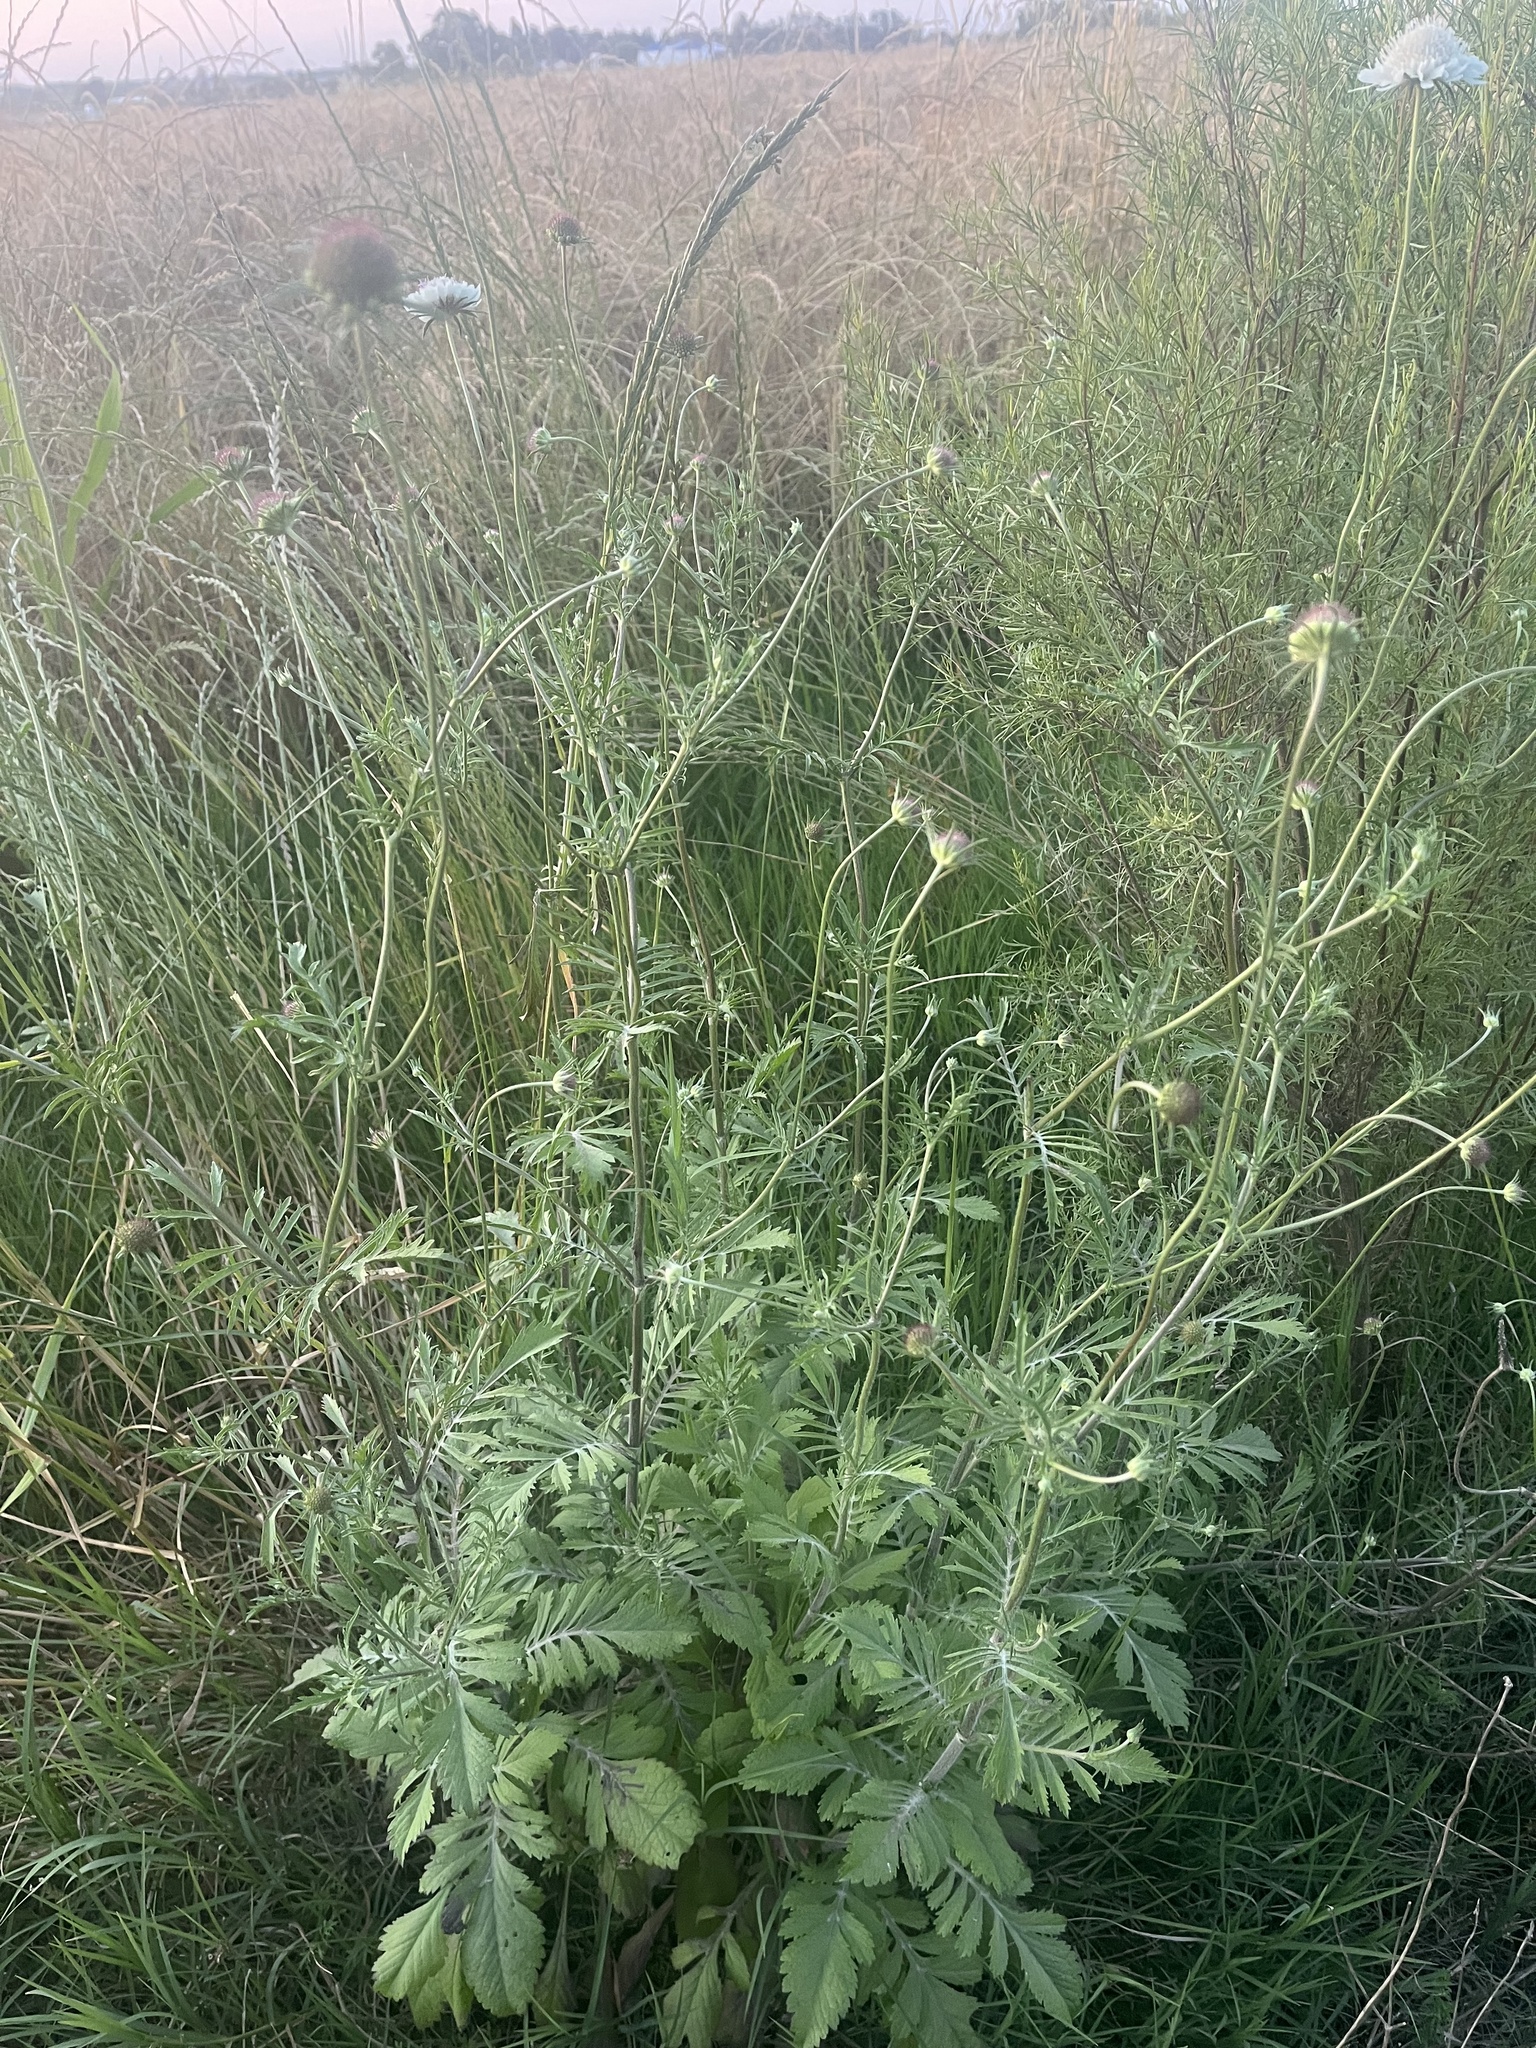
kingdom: Plantae
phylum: Tracheophyta
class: Magnoliopsida
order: Dipsacales
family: Caprifoliaceae
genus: Sixalix
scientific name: Sixalix atropurpurea
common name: Sweet scabious
